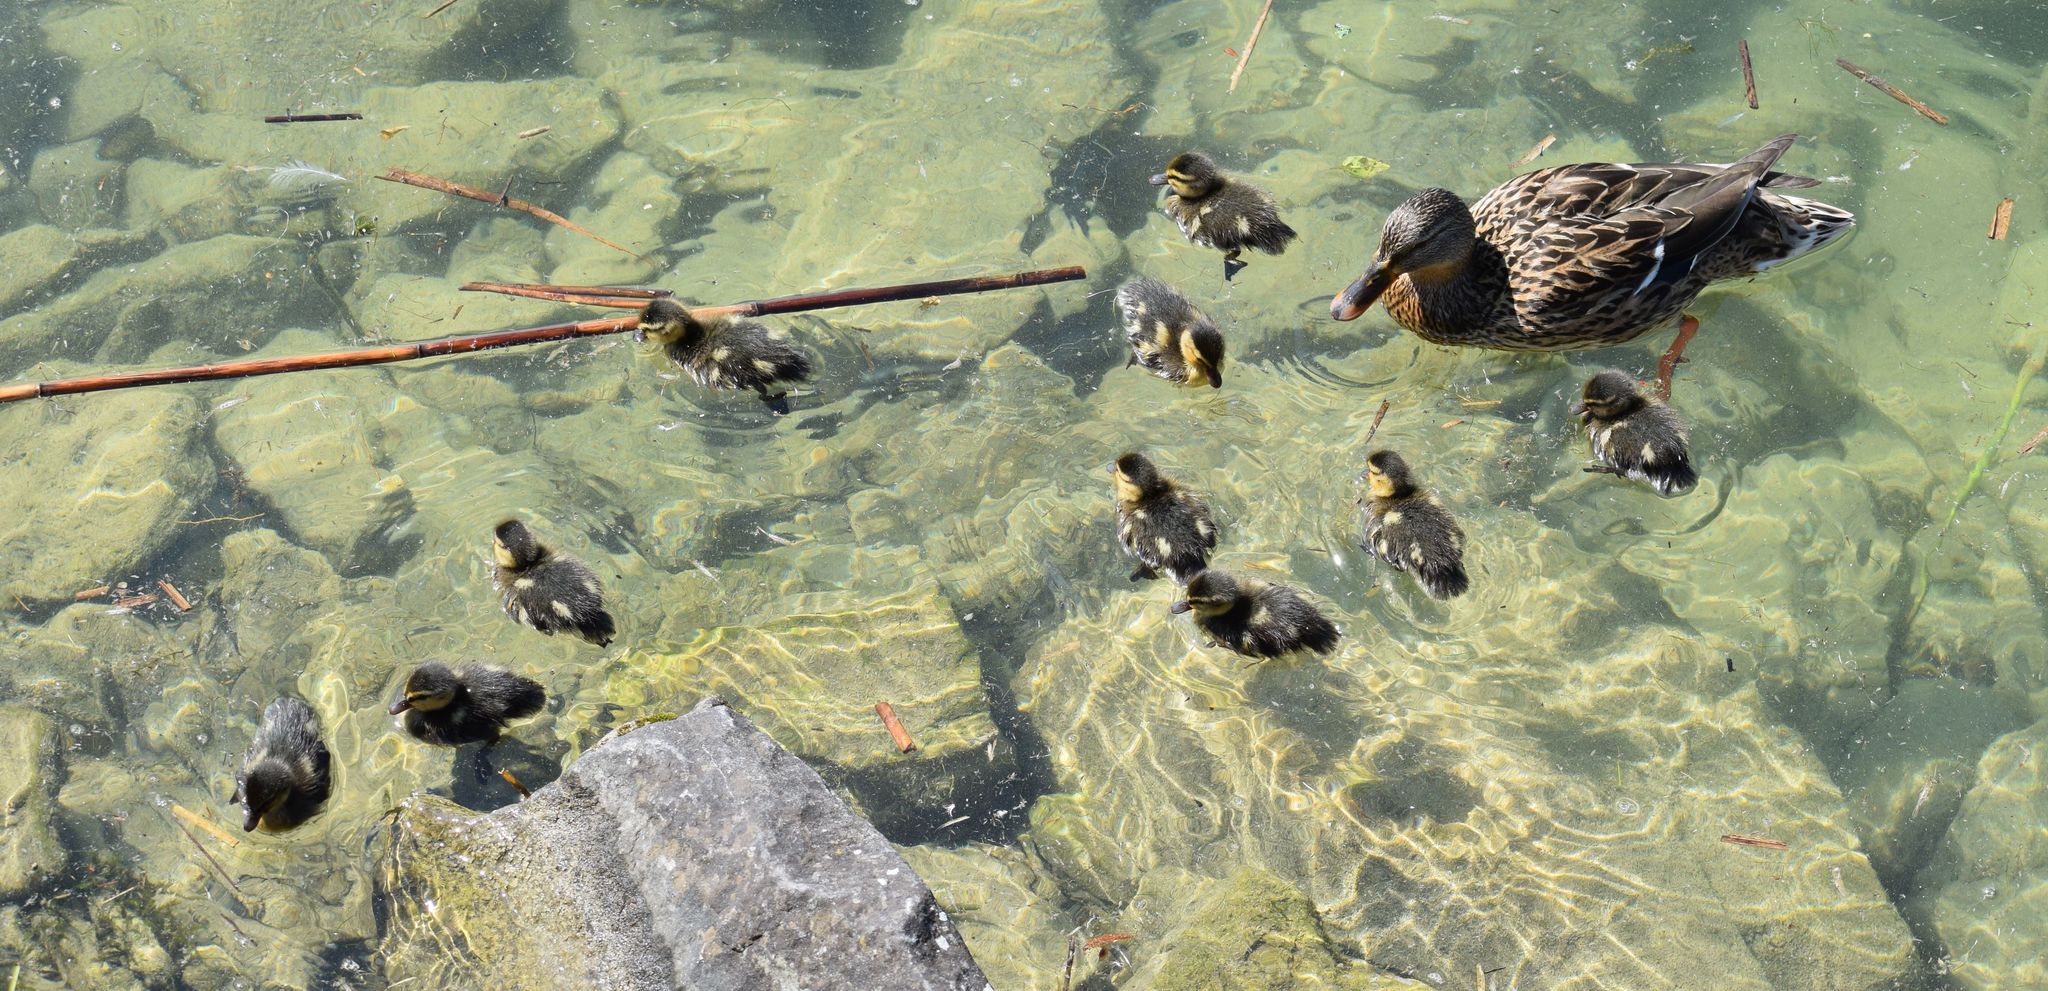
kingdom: Animalia
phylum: Chordata
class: Aves
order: Anseriformes
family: Anatidae
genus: Anas
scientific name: Anas platyrhynchos
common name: Mallard
